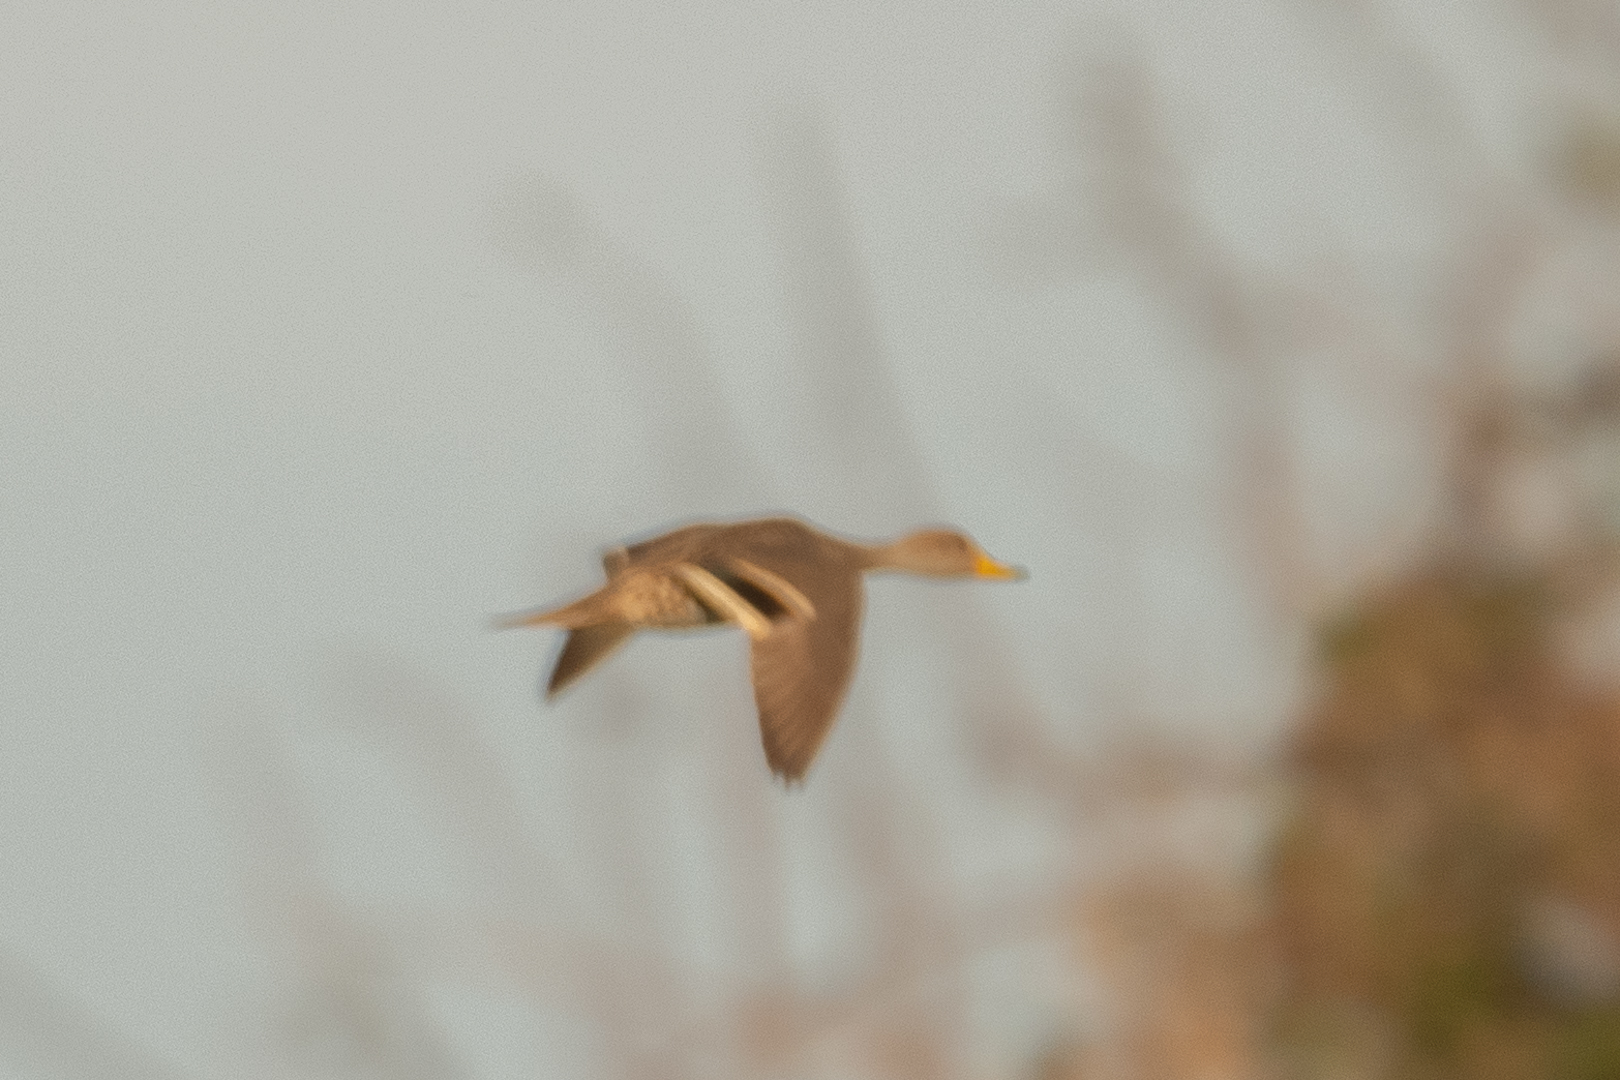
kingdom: Animalia
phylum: Chordata
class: Aves
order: Anseriformes
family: Anatidae
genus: Anas
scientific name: Anas georgica
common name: Yellow-billed pintail
